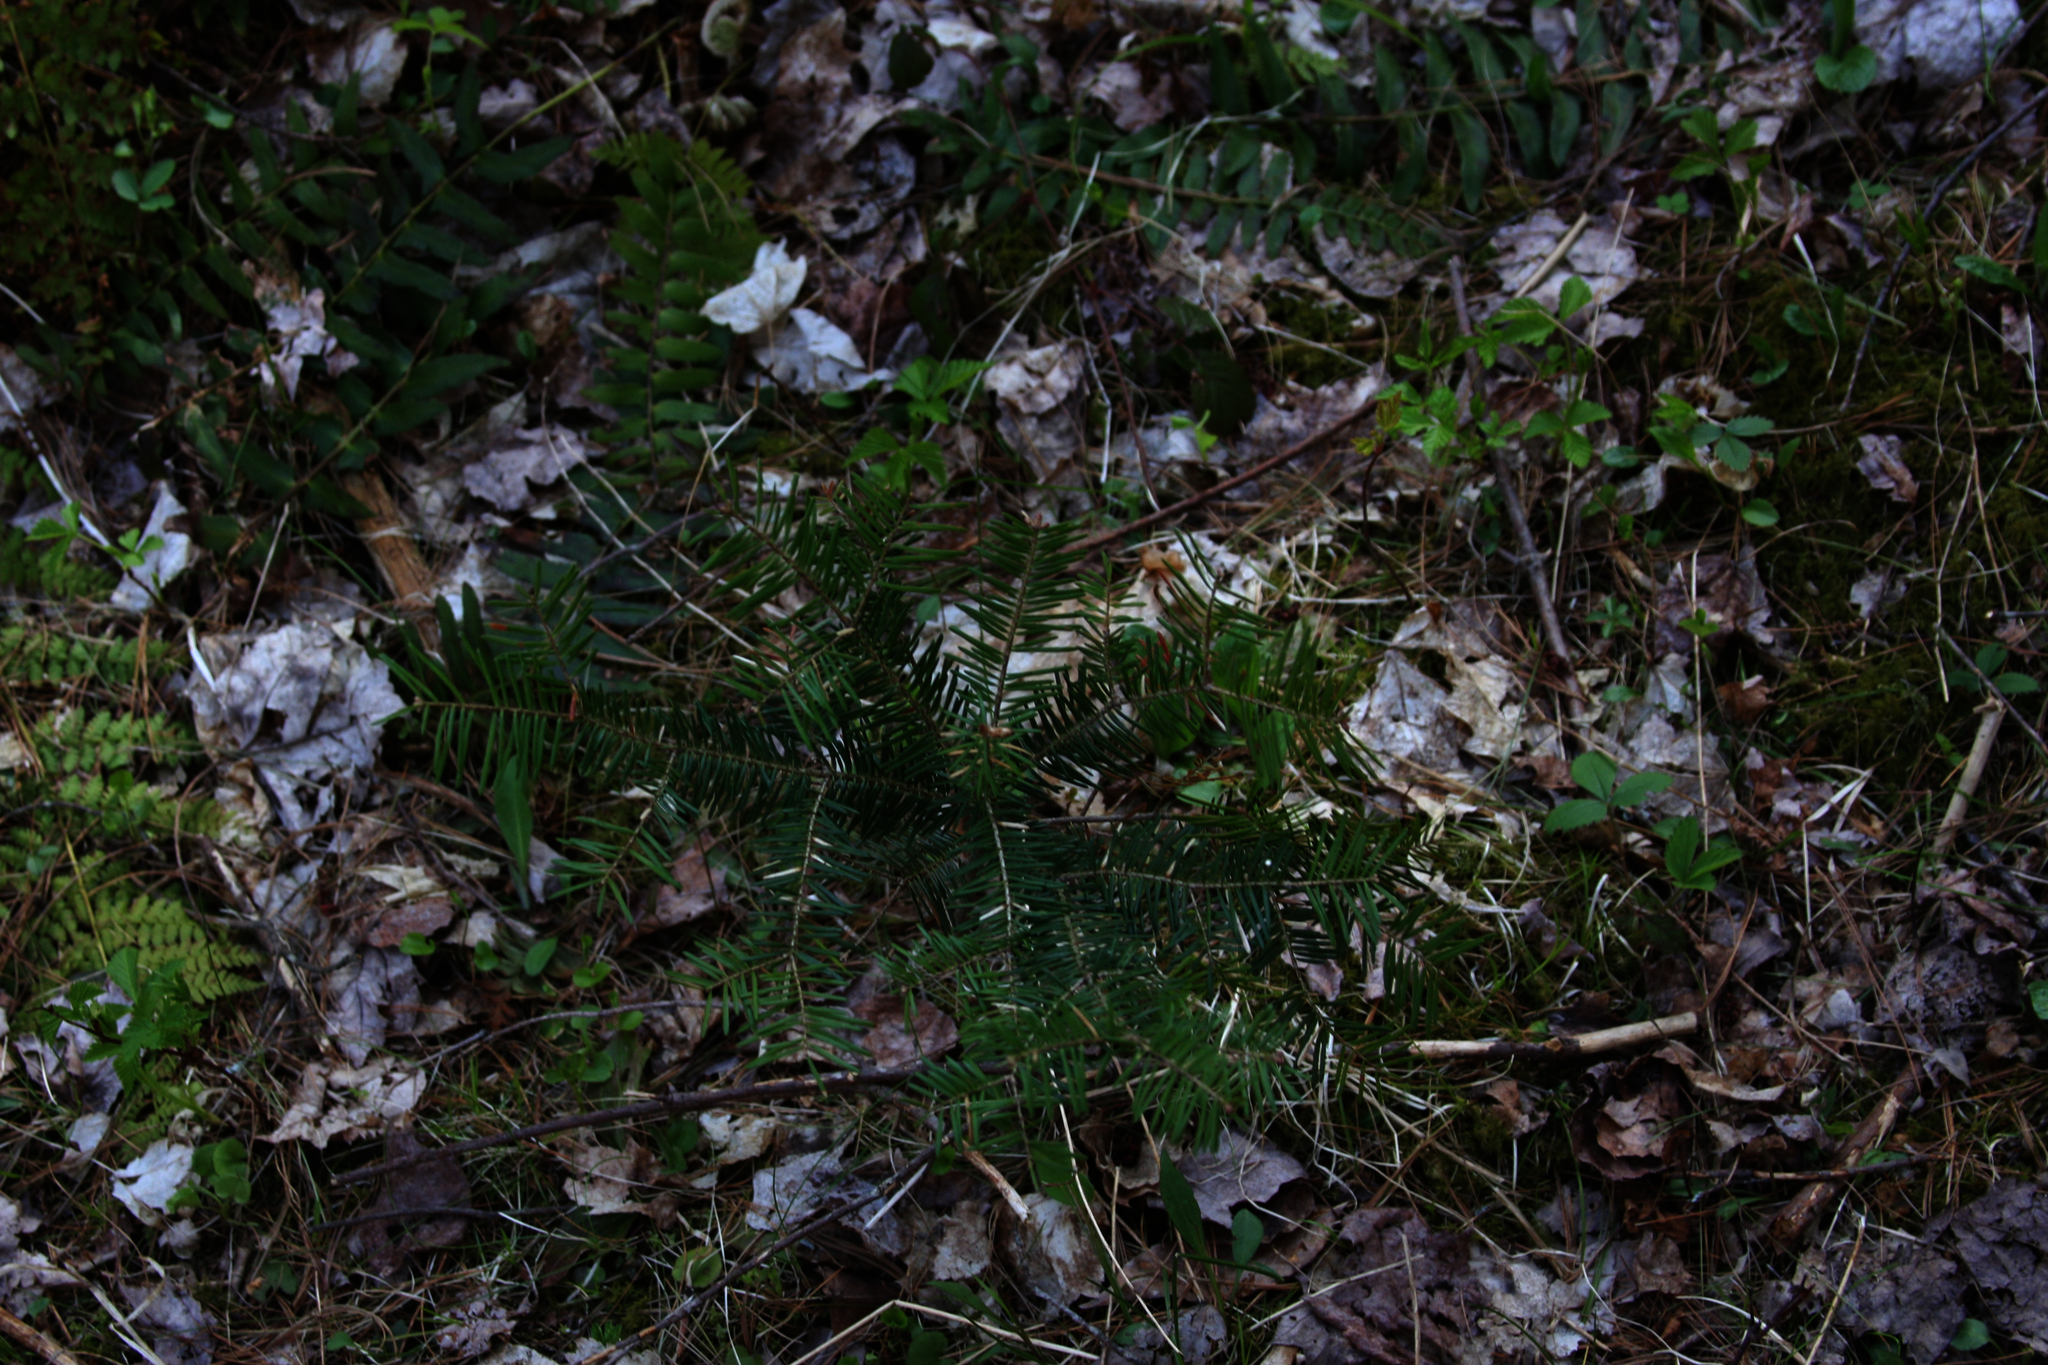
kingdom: Plantae
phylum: Tracheophyta
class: Pinopsida
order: Pinales
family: Pinaceae
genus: Abies
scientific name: Abies balsamea
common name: Balsam fir
